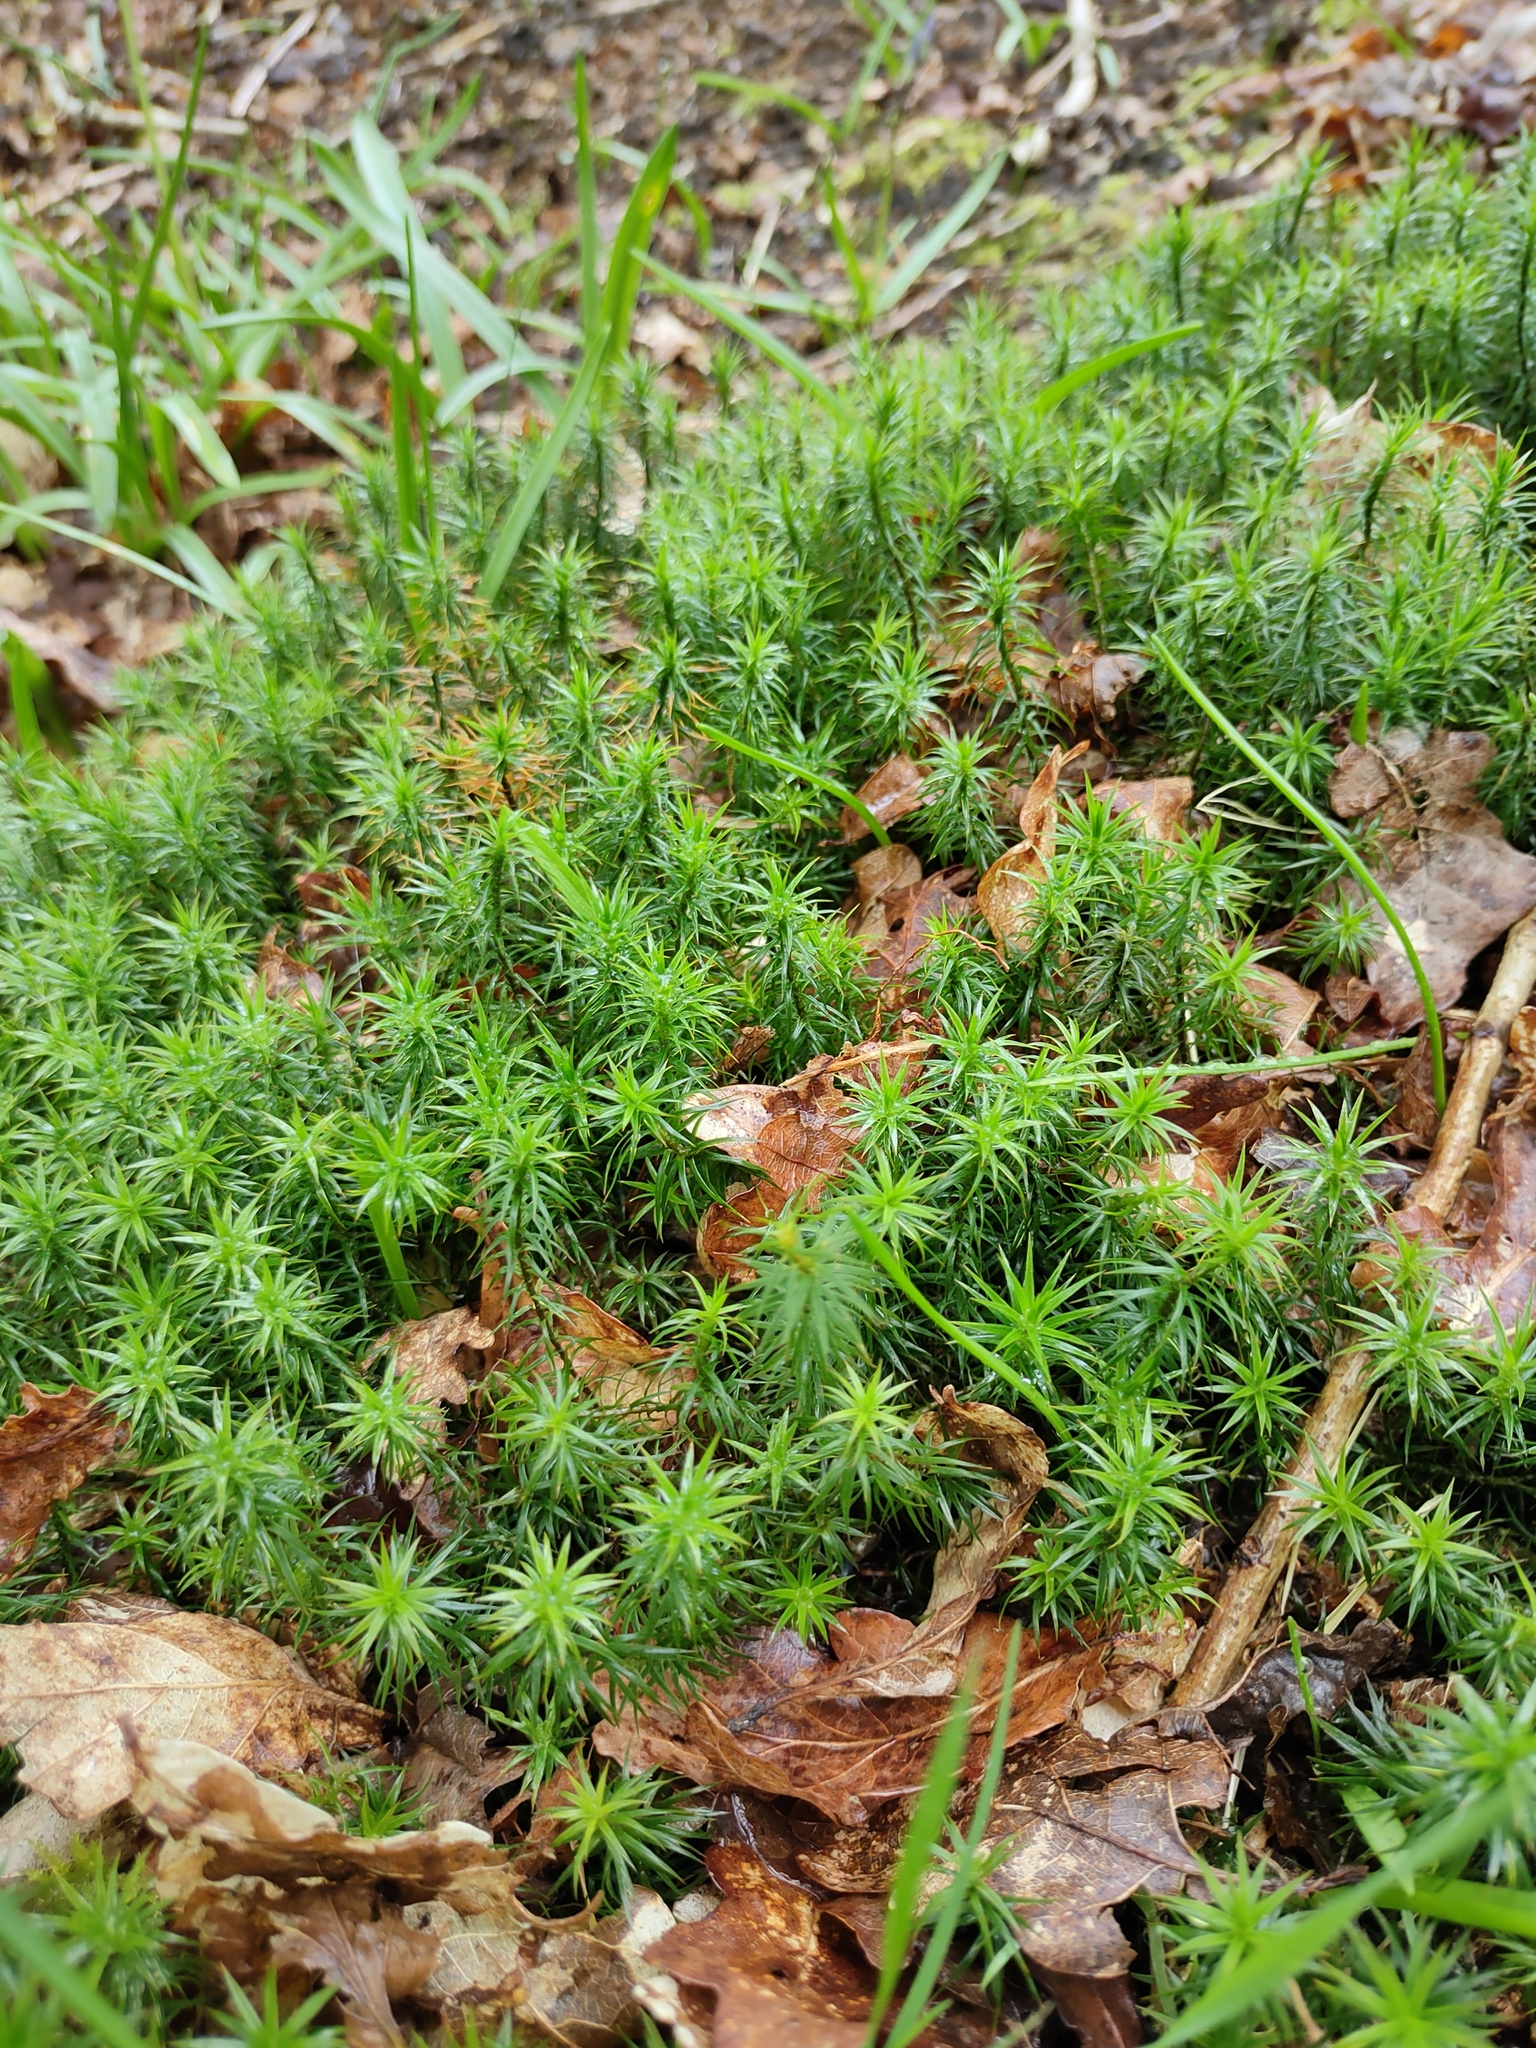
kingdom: Plantae
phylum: Bryophyta
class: Polytrichopsida
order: Polytrichales
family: Polytrichaceae
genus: Polytrichum
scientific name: Polytrichum formosum
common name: Bank haircap moss
